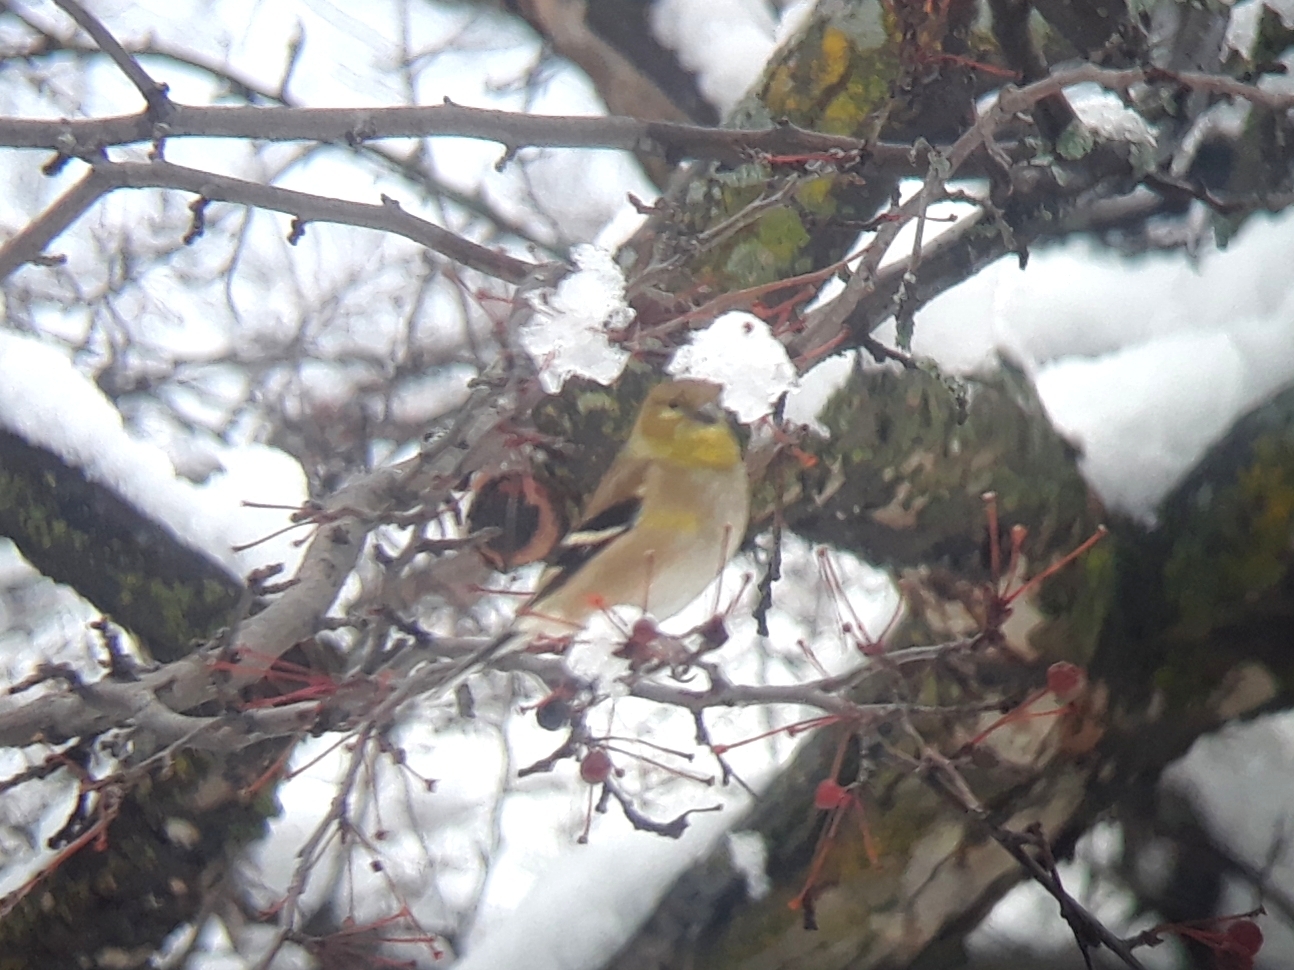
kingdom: Animalia
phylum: Chordata
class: Aves
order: Passeriformes
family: Fringillidae
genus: Spinus
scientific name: Spinus tristis
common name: American goldfinch
